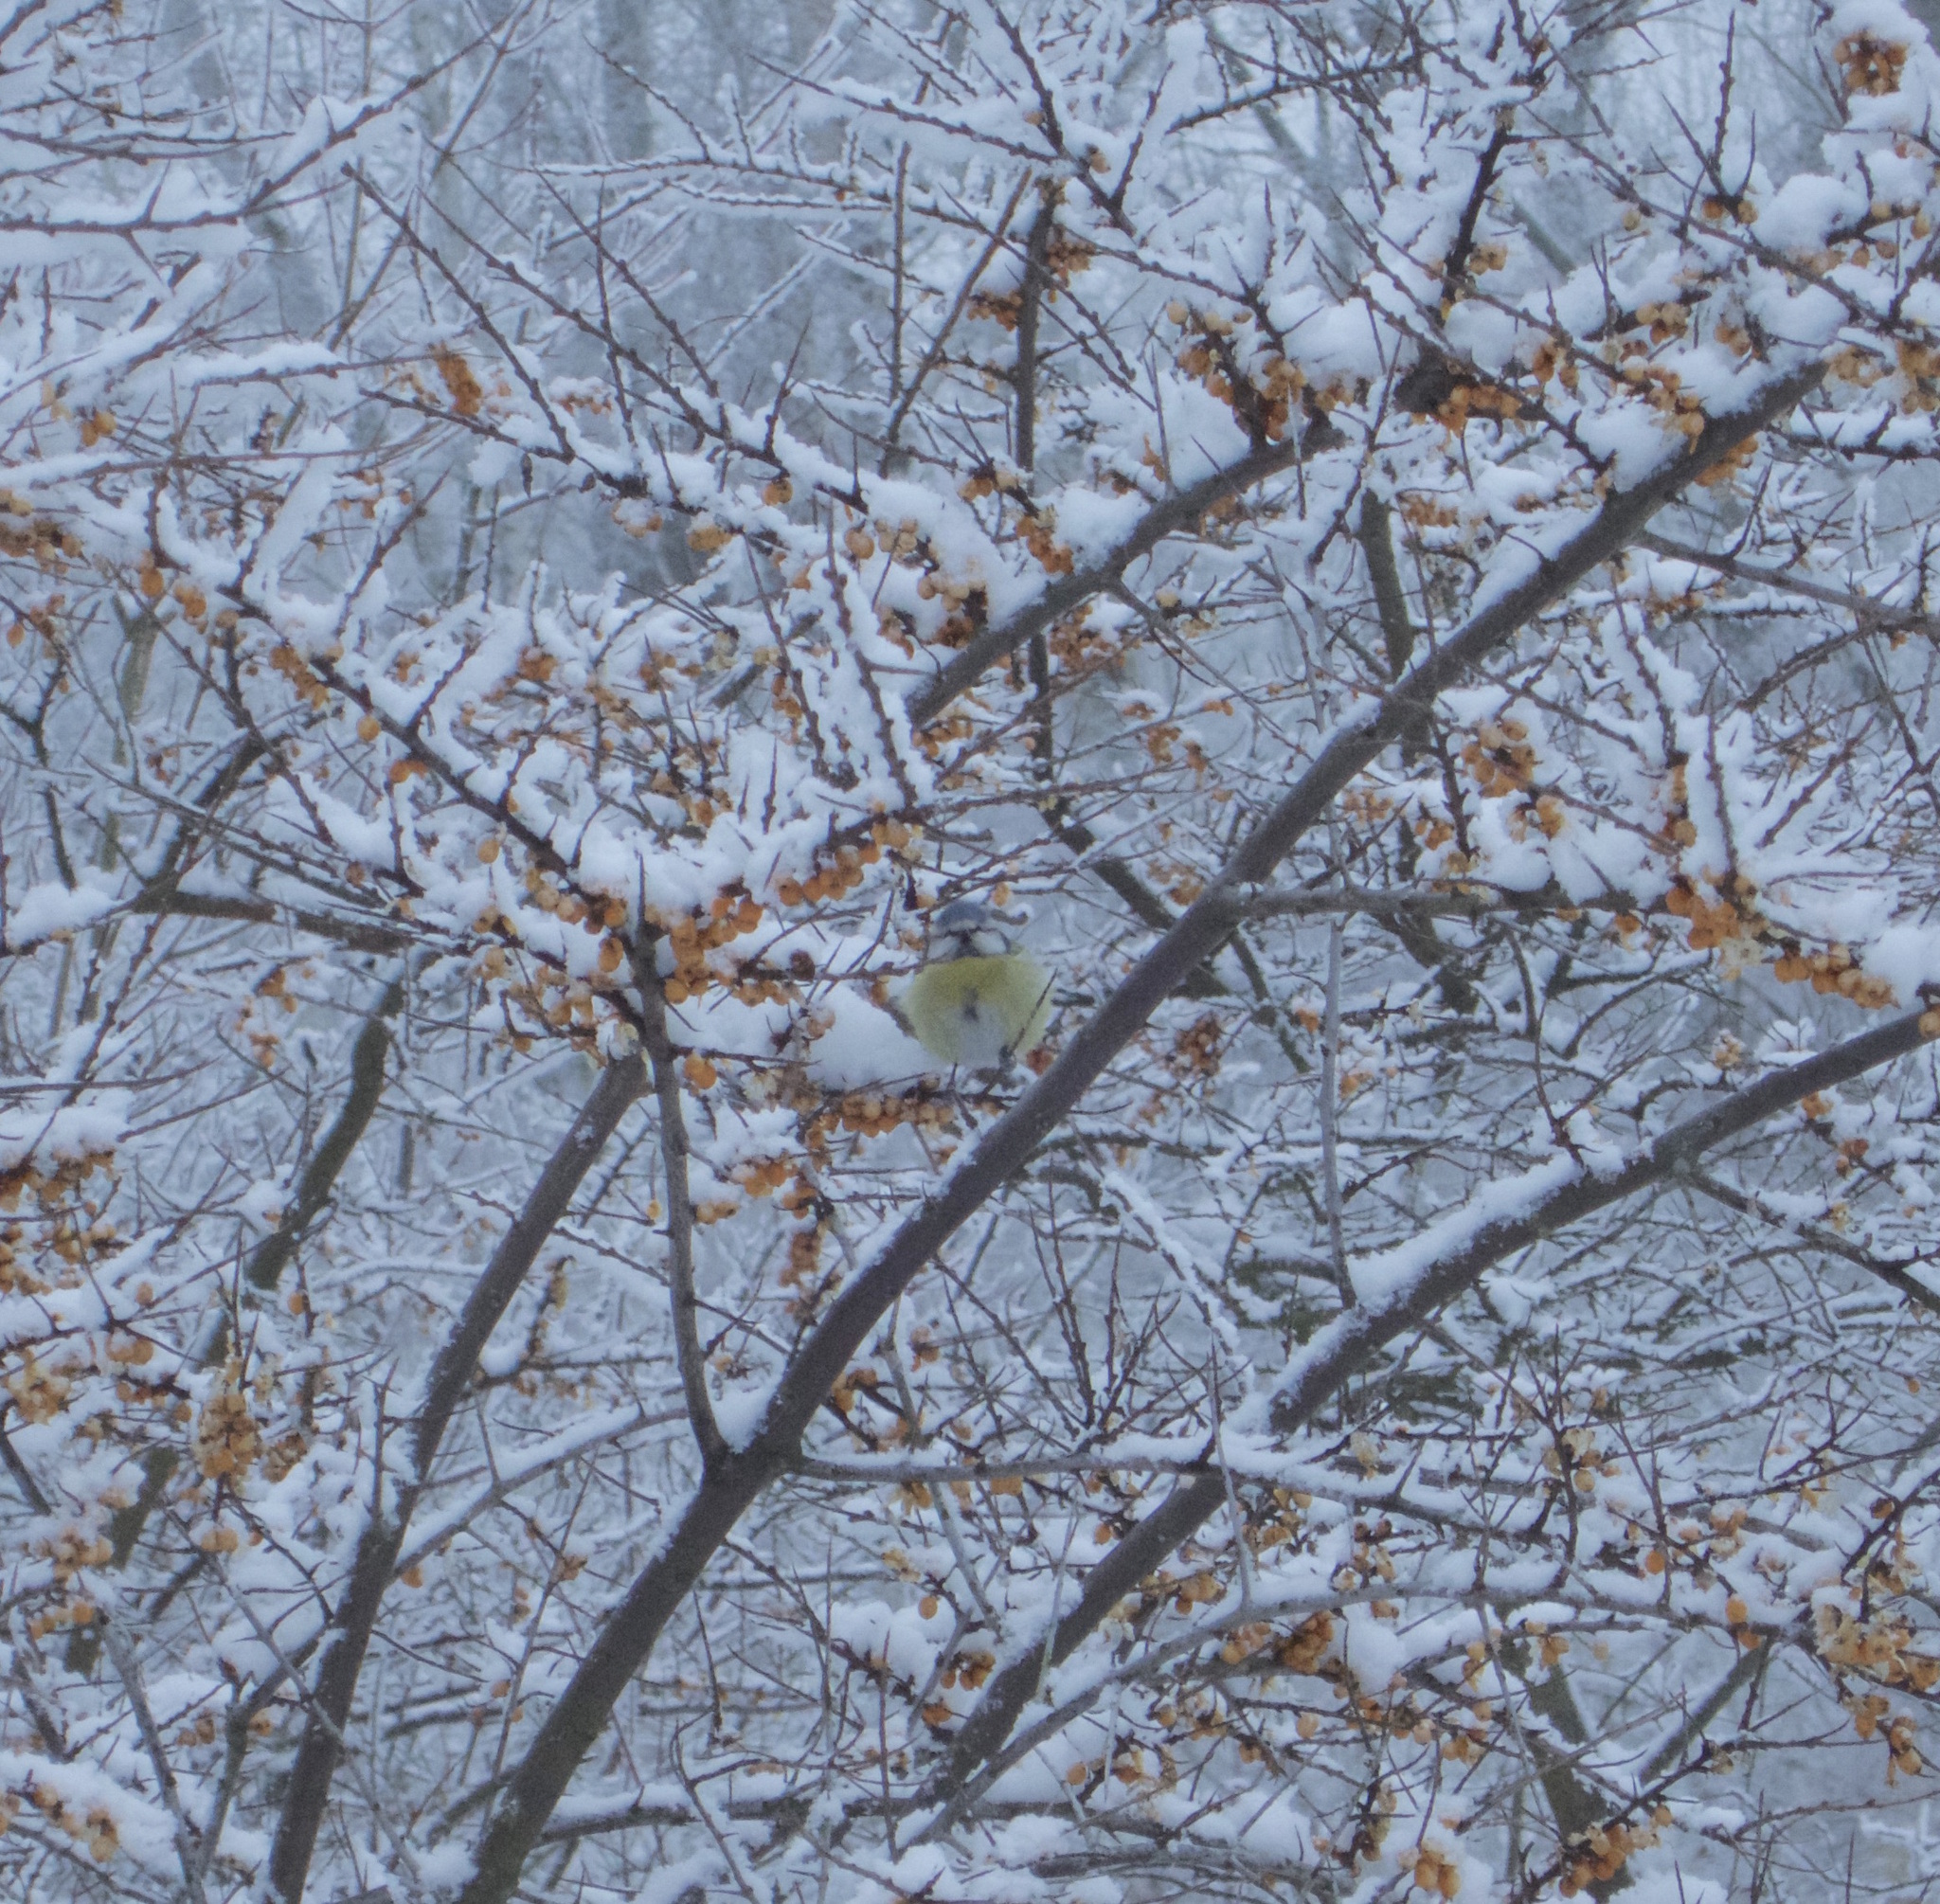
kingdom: Animalia
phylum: Chordata
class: Aves
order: Passeriformes
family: Paridae
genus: Cyanistes
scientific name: Cyanistes caeruleus
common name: Eurasian blue tit
